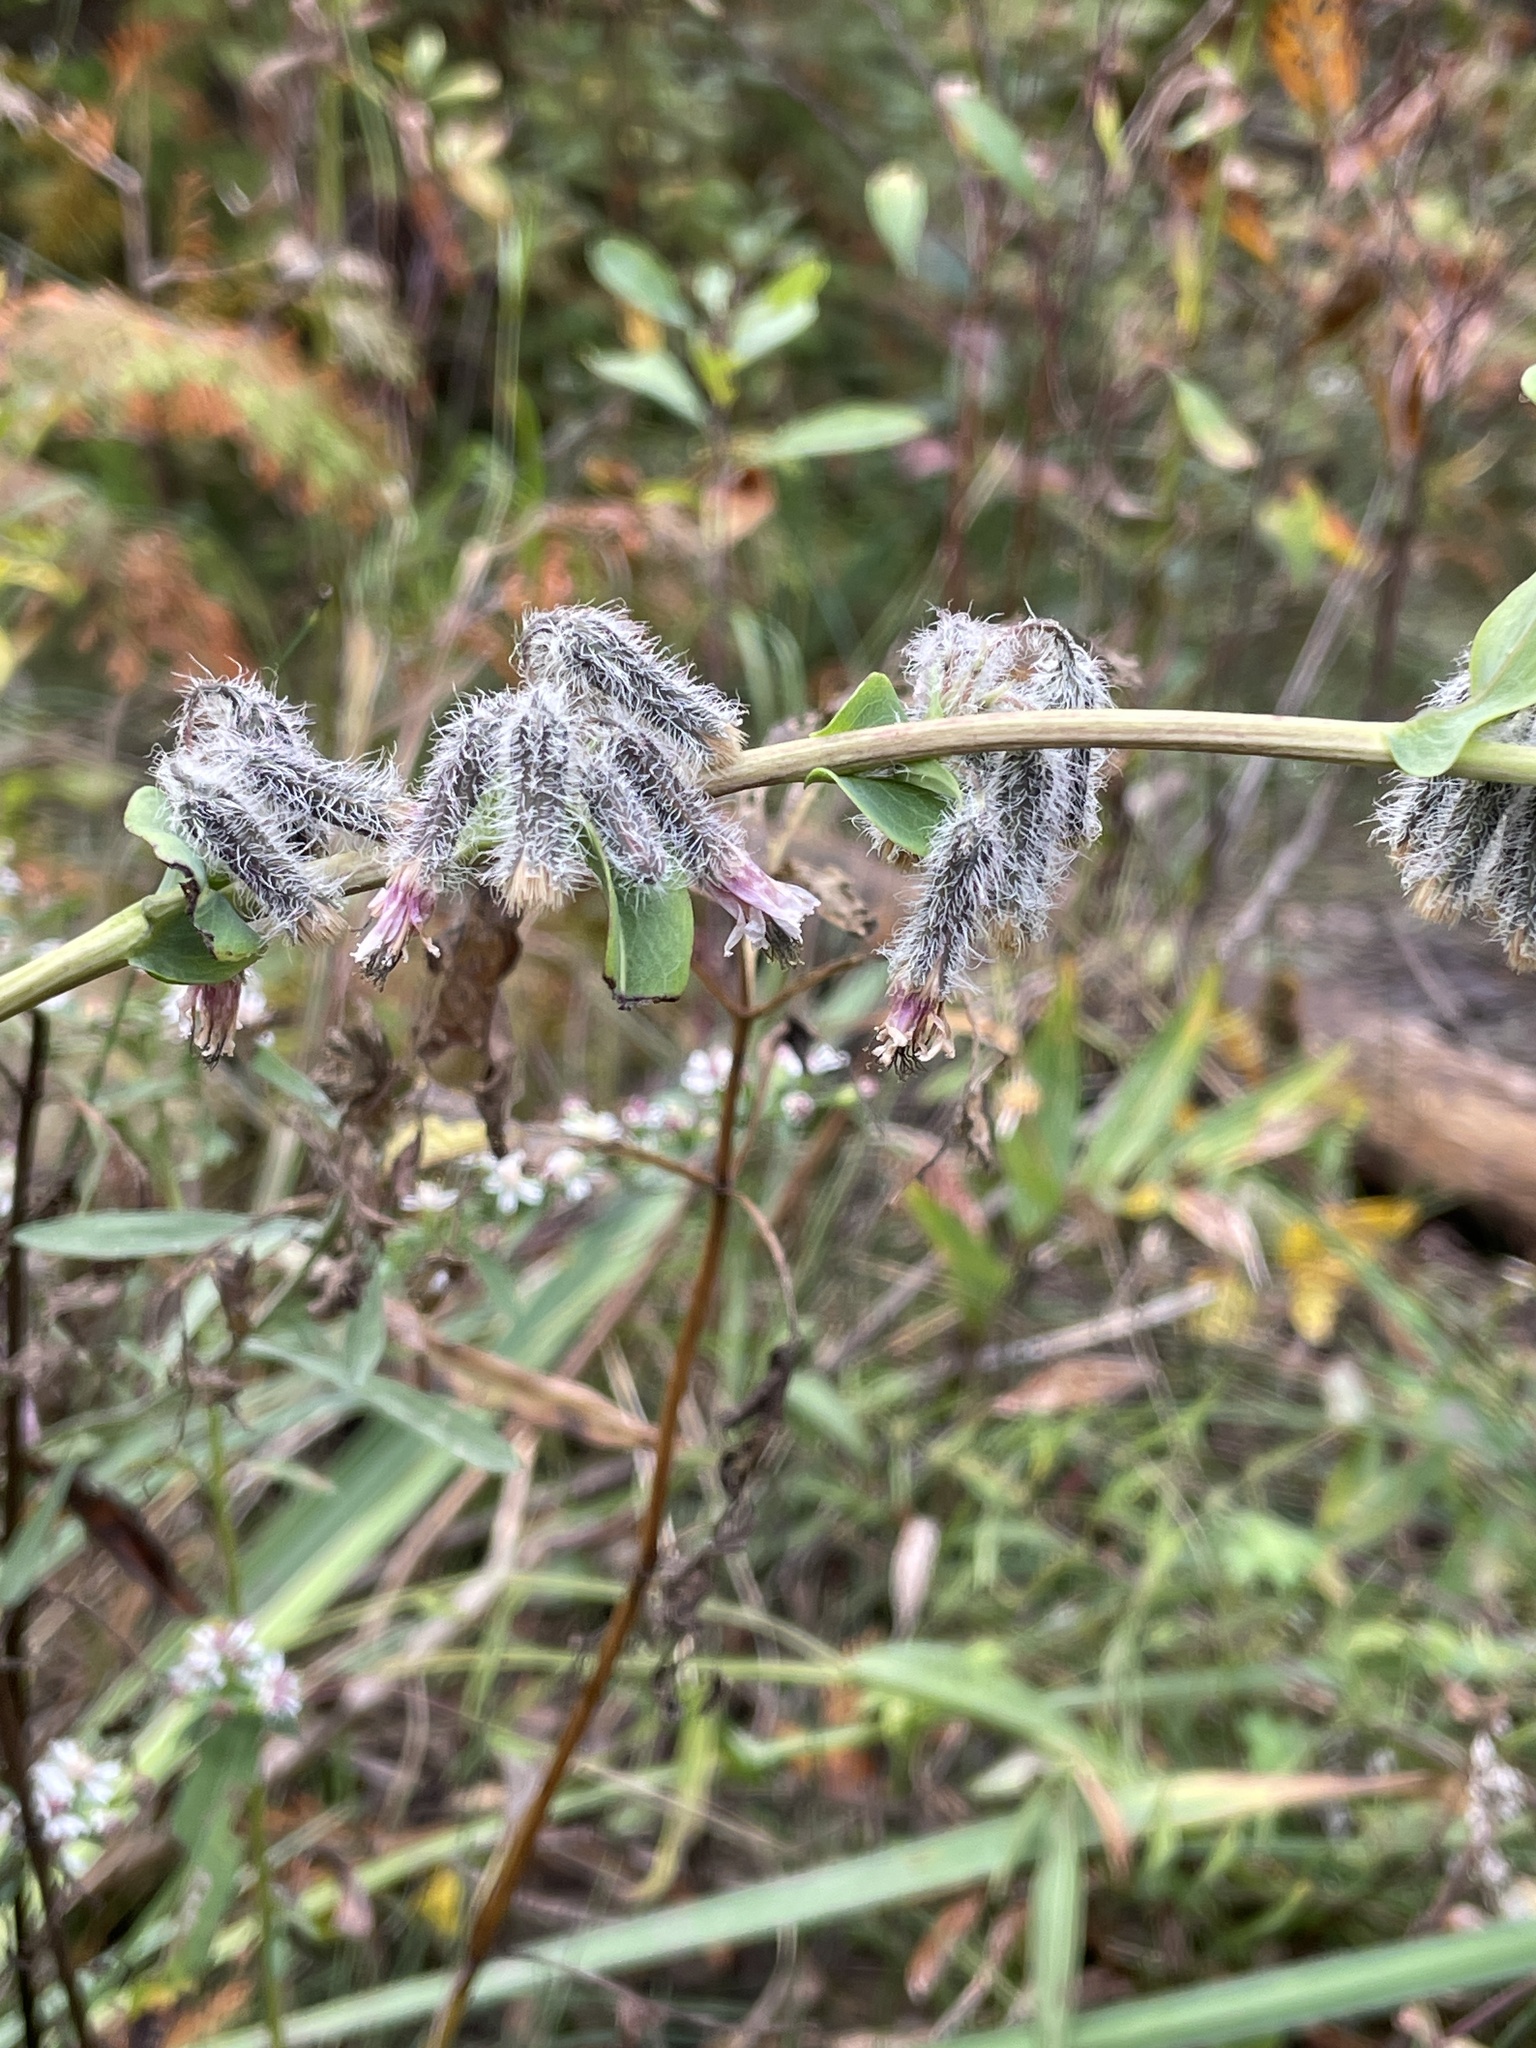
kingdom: Plantae
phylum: Tracheophyta
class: Magnoliopsida
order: Asterales
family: Asteraceae
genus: Nabalus
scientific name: Nabalus racemosus
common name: Glaucous white lettuce
